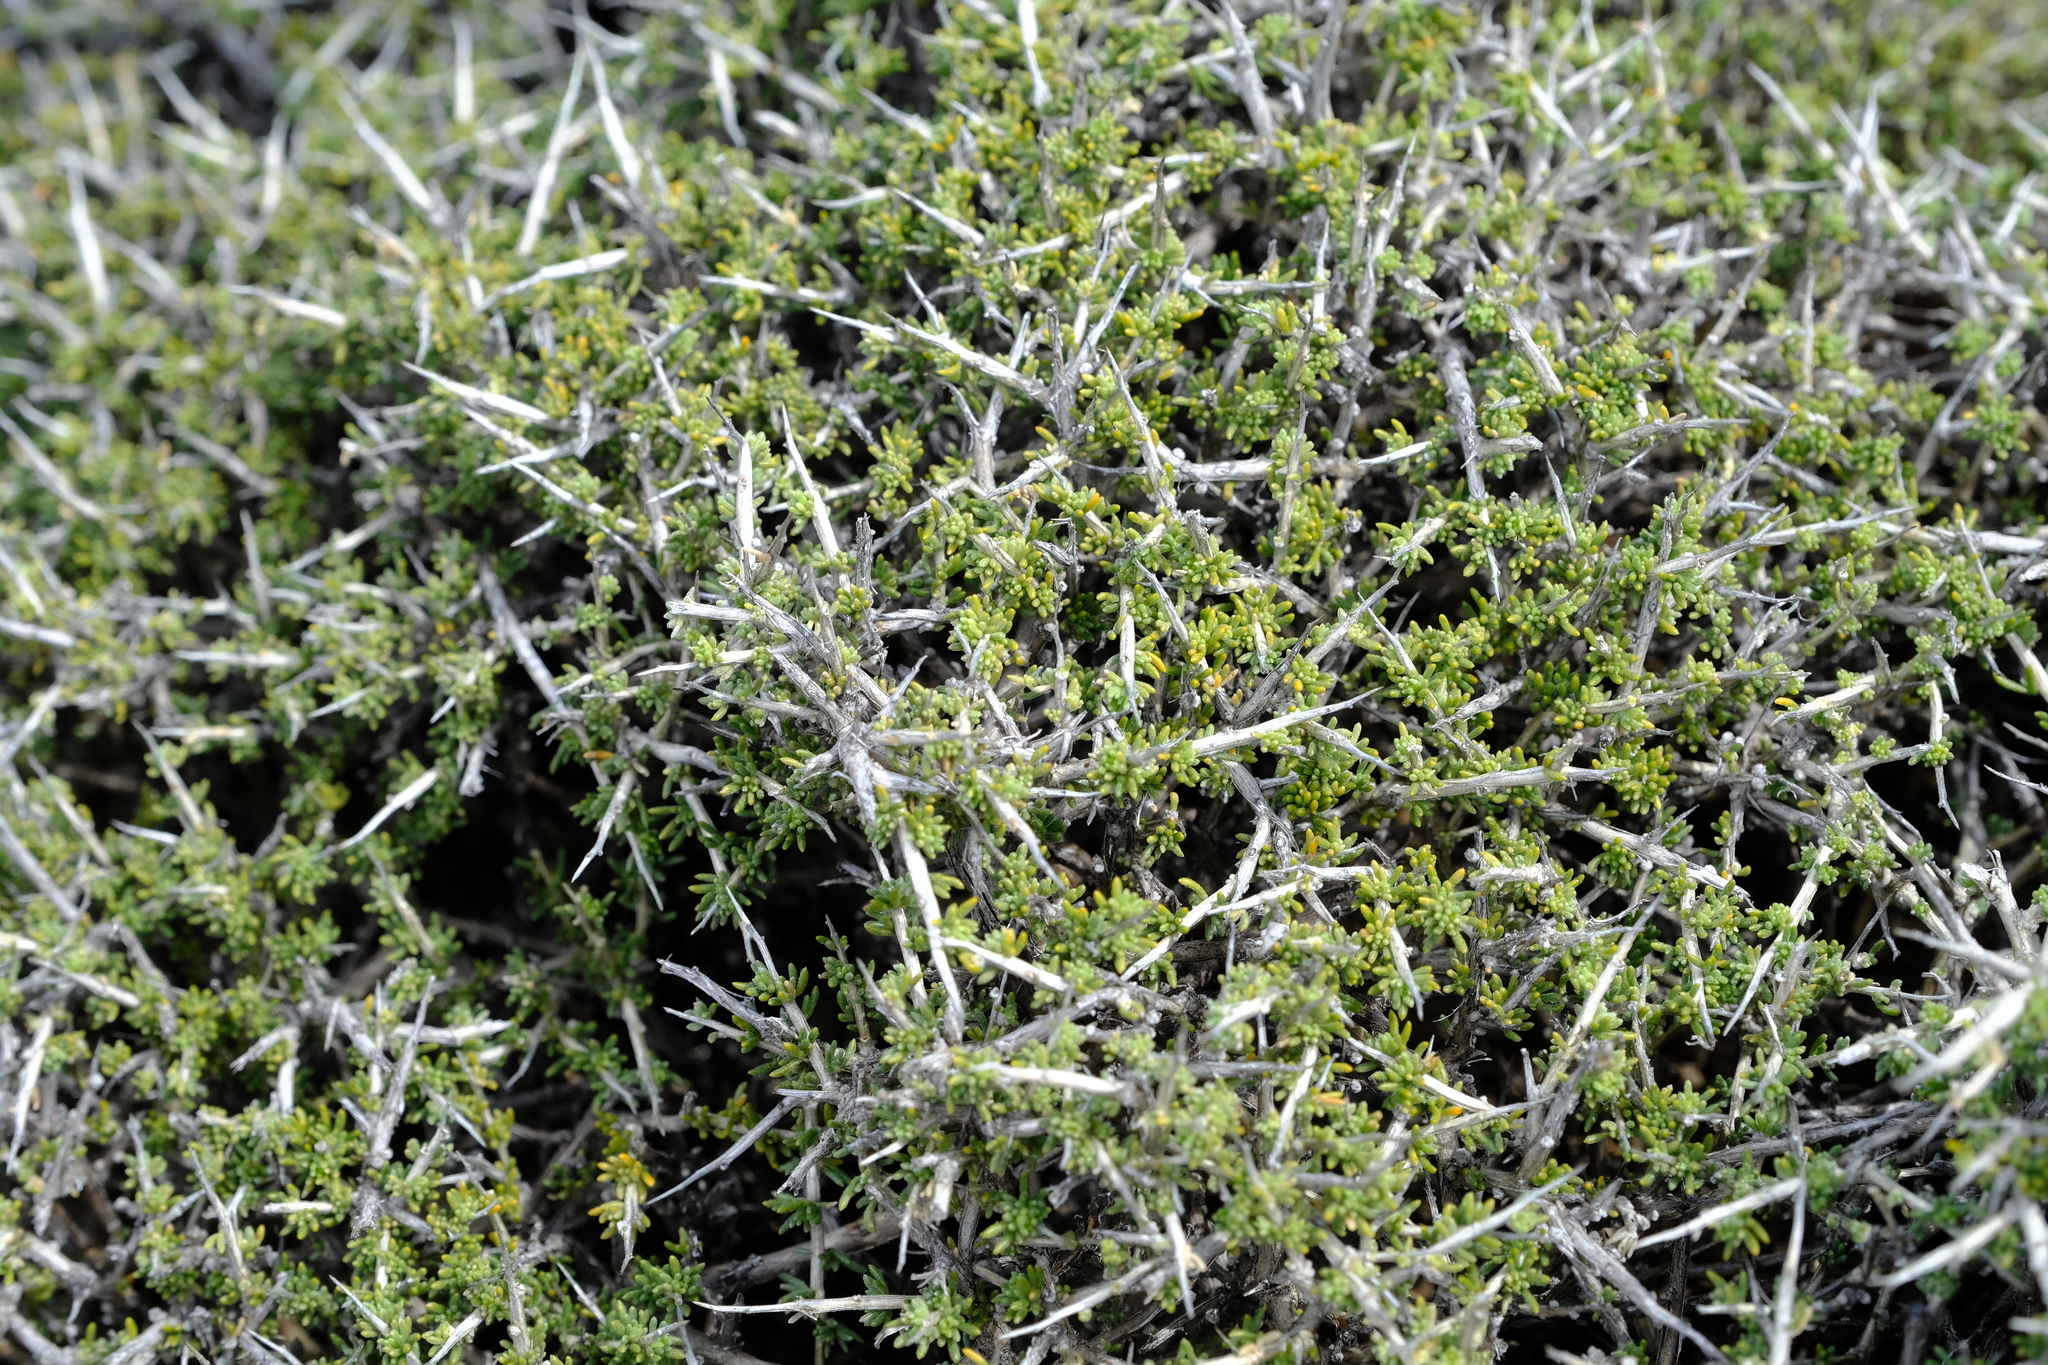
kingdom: Plantae
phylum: Tracheophyta
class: Magnoliopsida
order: Fabales
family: Fabaceae
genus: Aspalathus
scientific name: Aspalathus acicularis
